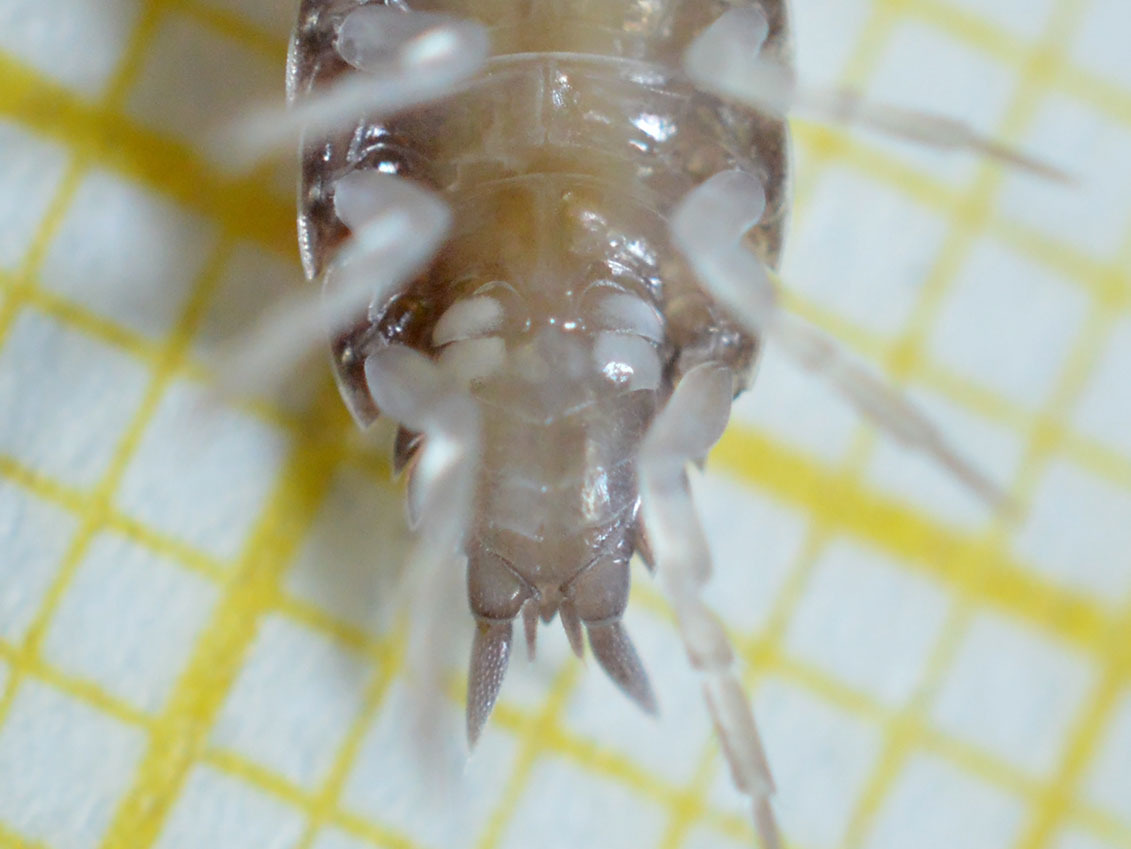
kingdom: Animalia
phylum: Arthropoda
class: Malacostraca
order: Isopoda
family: Porcellionidae
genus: Porcellionides
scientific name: Porcellionides pruinosus
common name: Plum woodlouse
